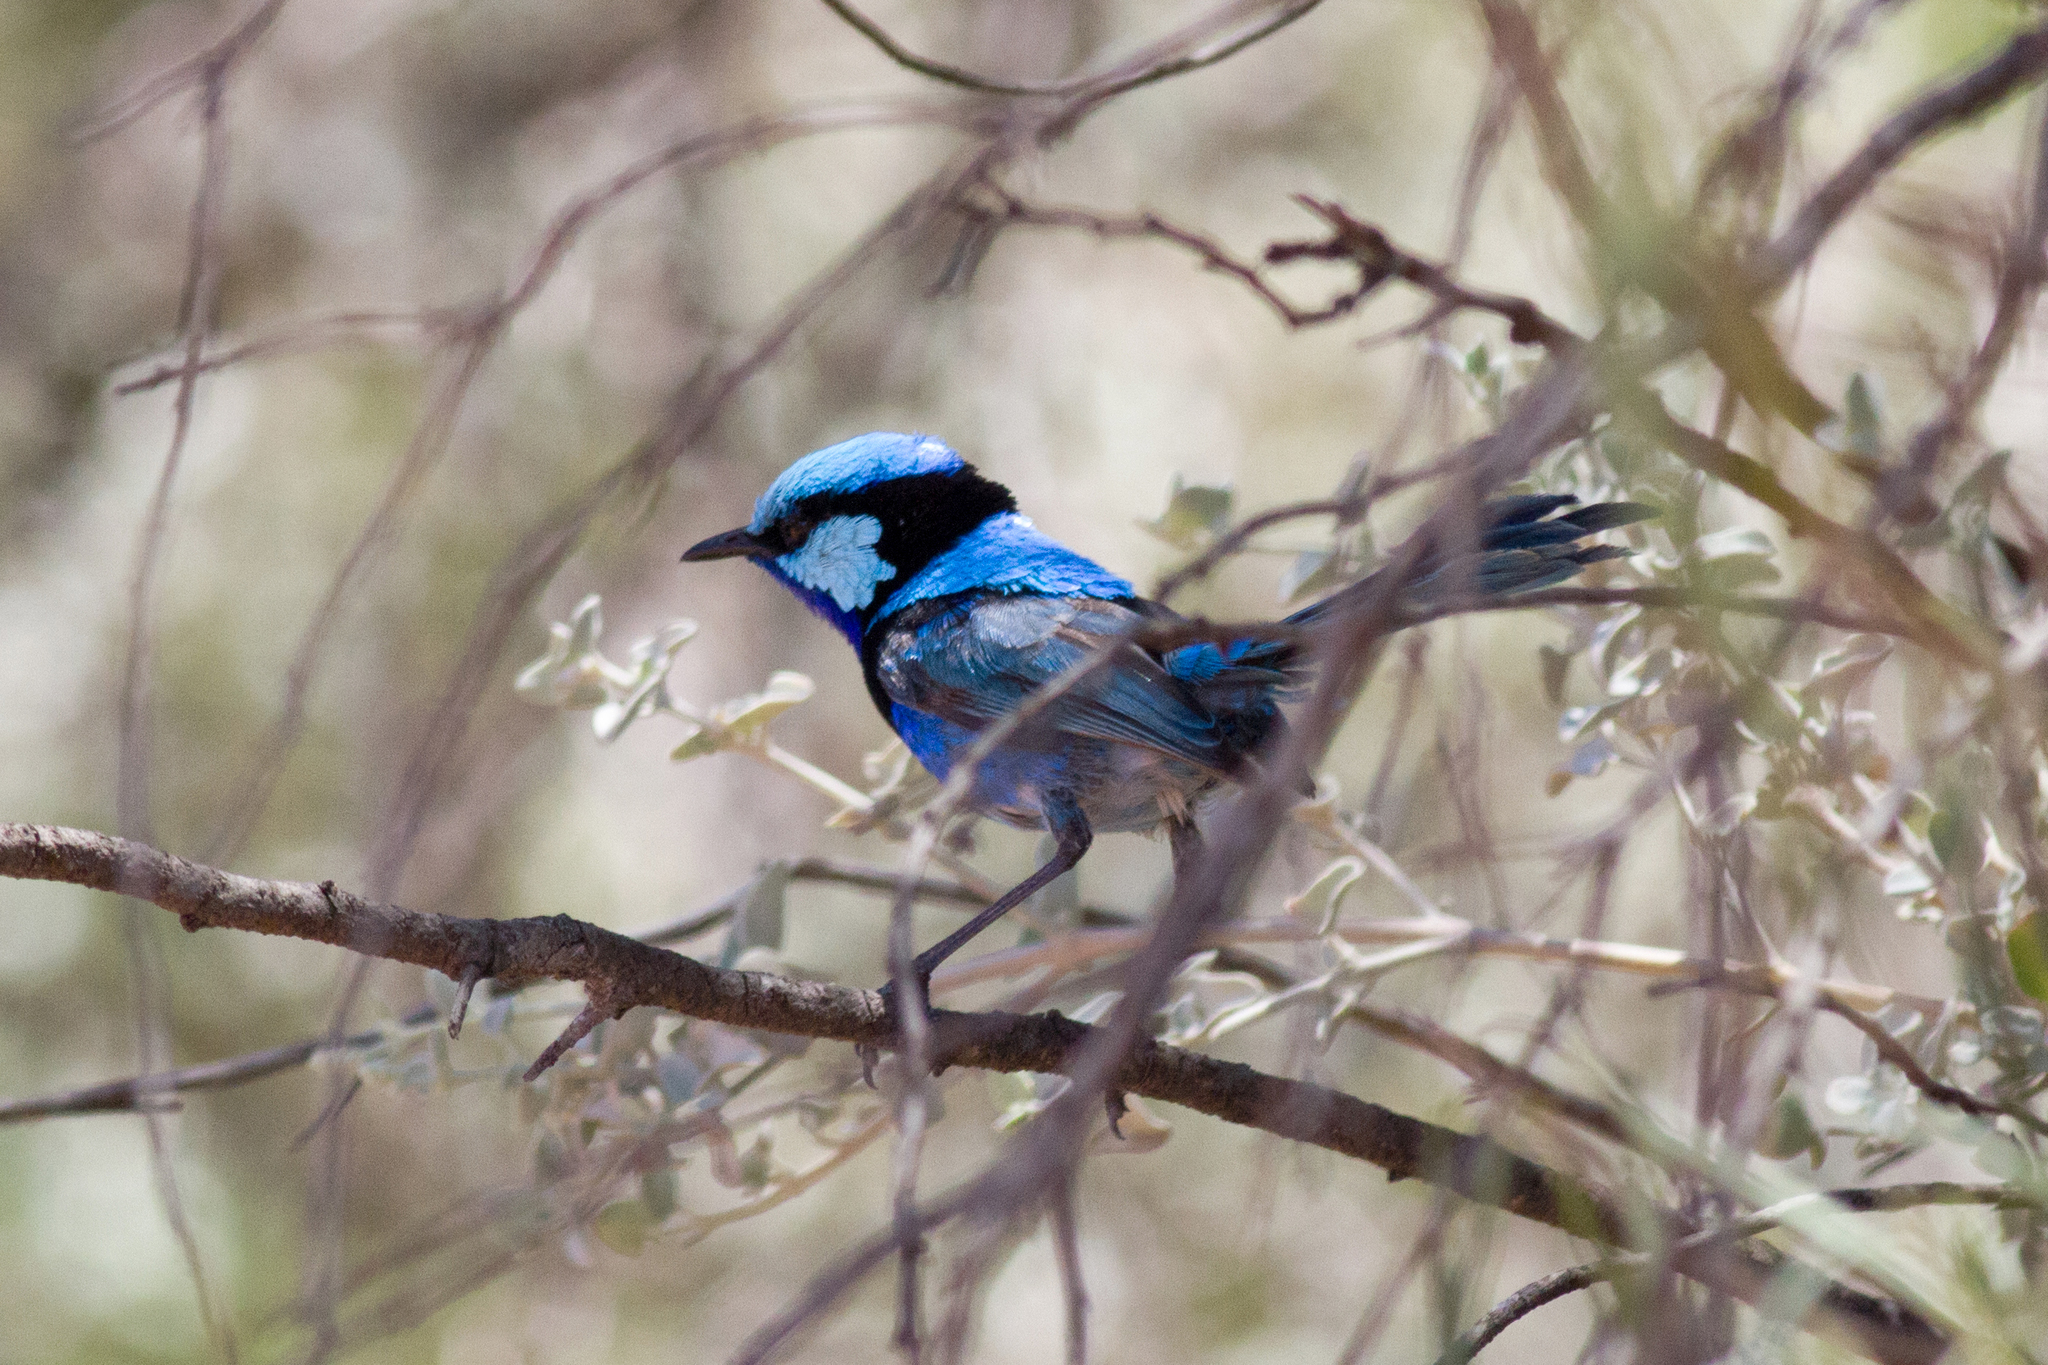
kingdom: Animalia
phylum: Chordata
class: Aves
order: Passeriformes
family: Maluridae
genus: Malurus
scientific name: Malurus splendens
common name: Splendid fairywren
